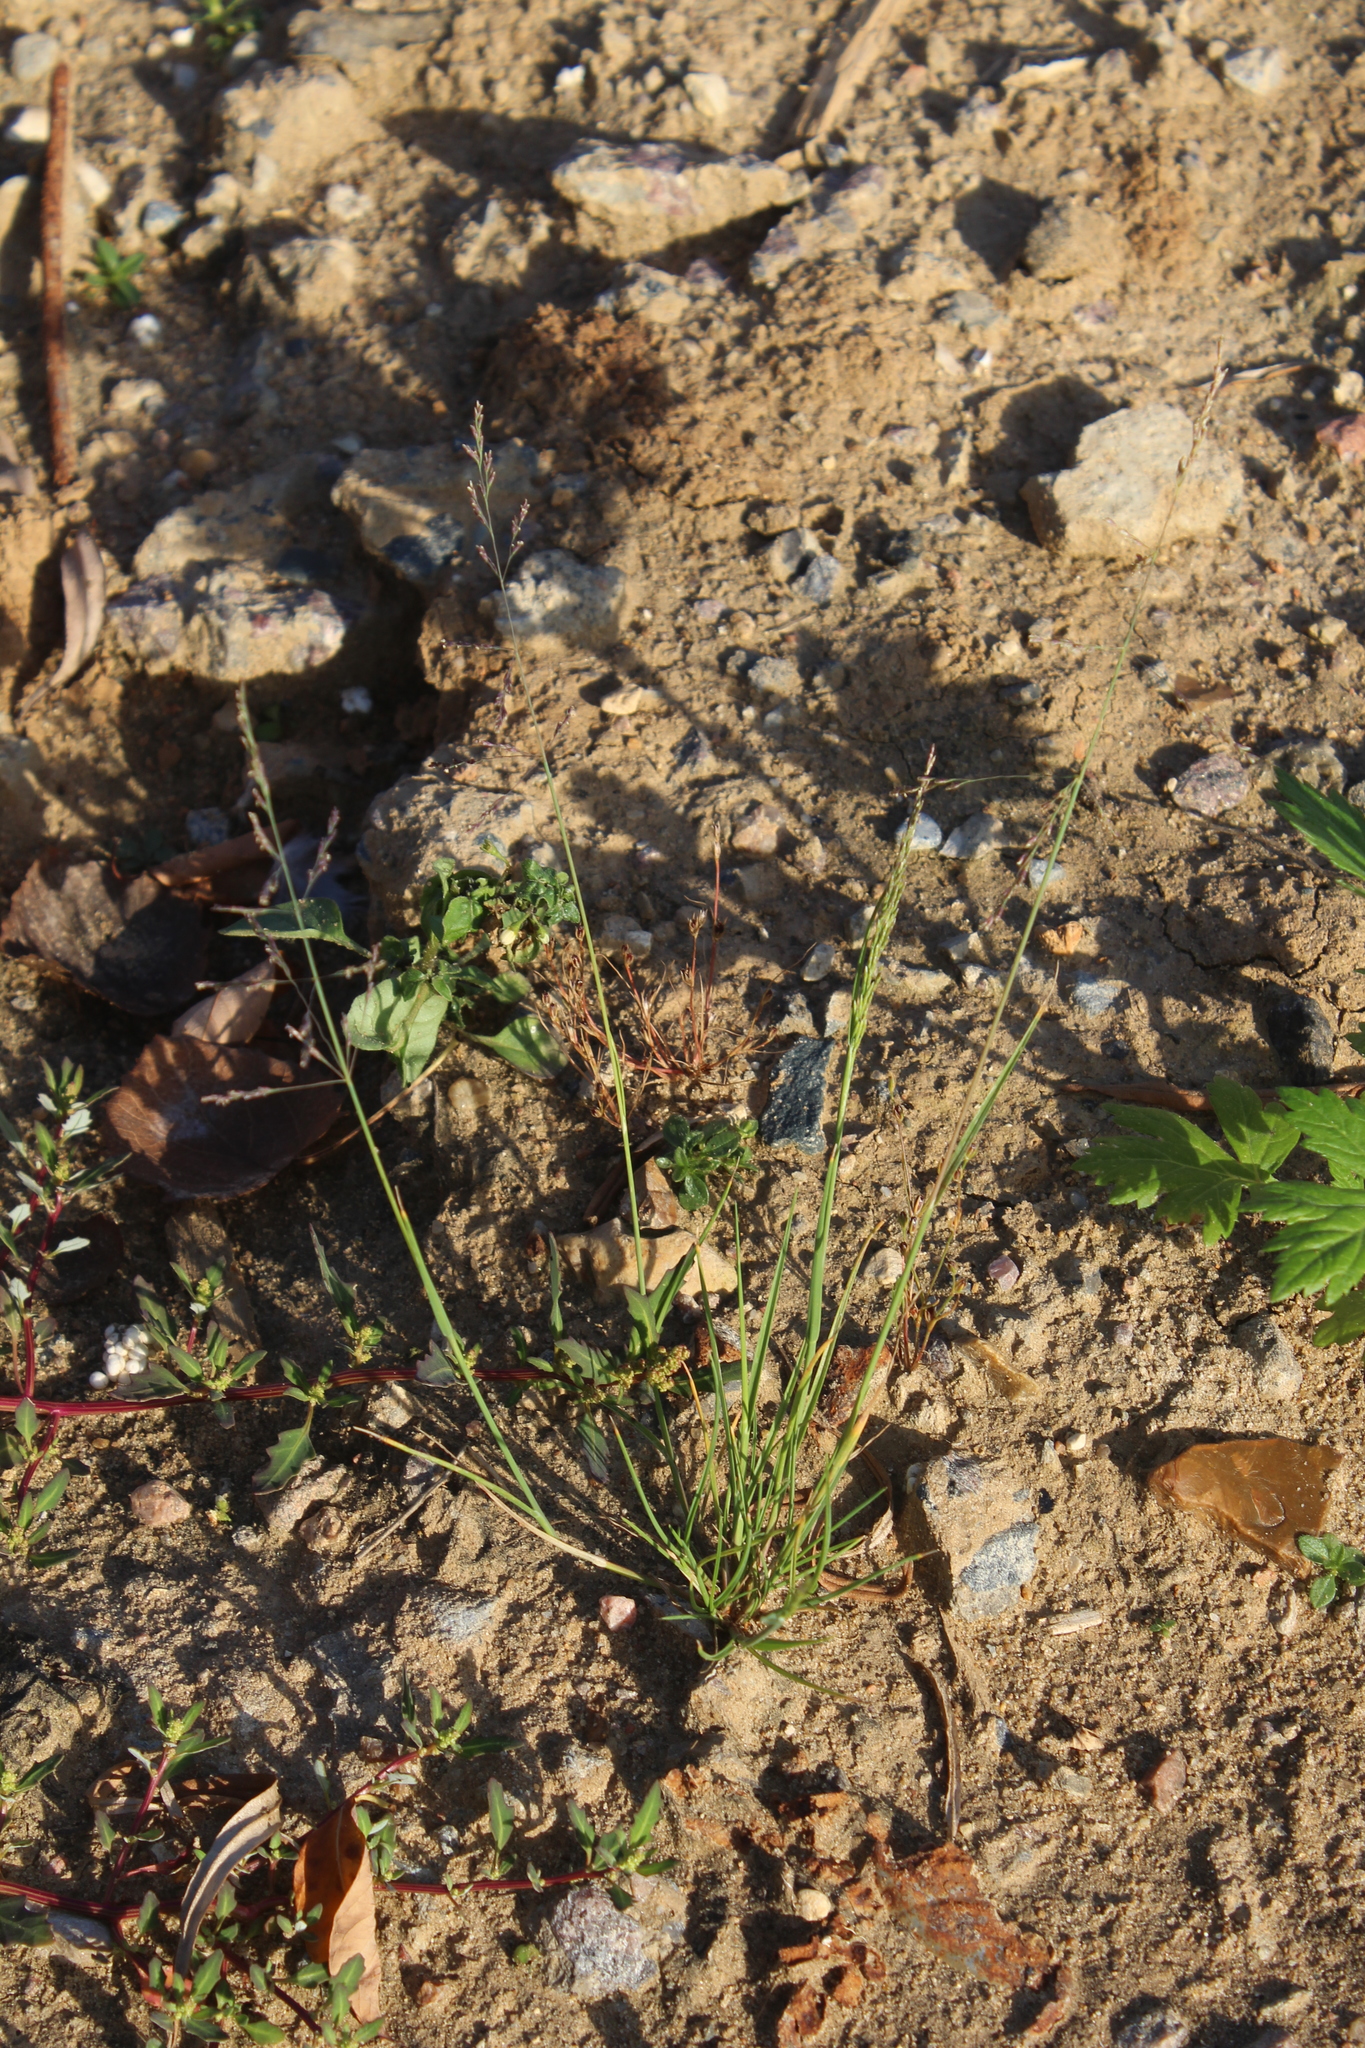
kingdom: Plantae
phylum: Tracheophyta
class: Liliopsida
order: Poales
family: Poaceae
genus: Puccinellia
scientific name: Puccinellia distans
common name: Weeping alkaligrass
